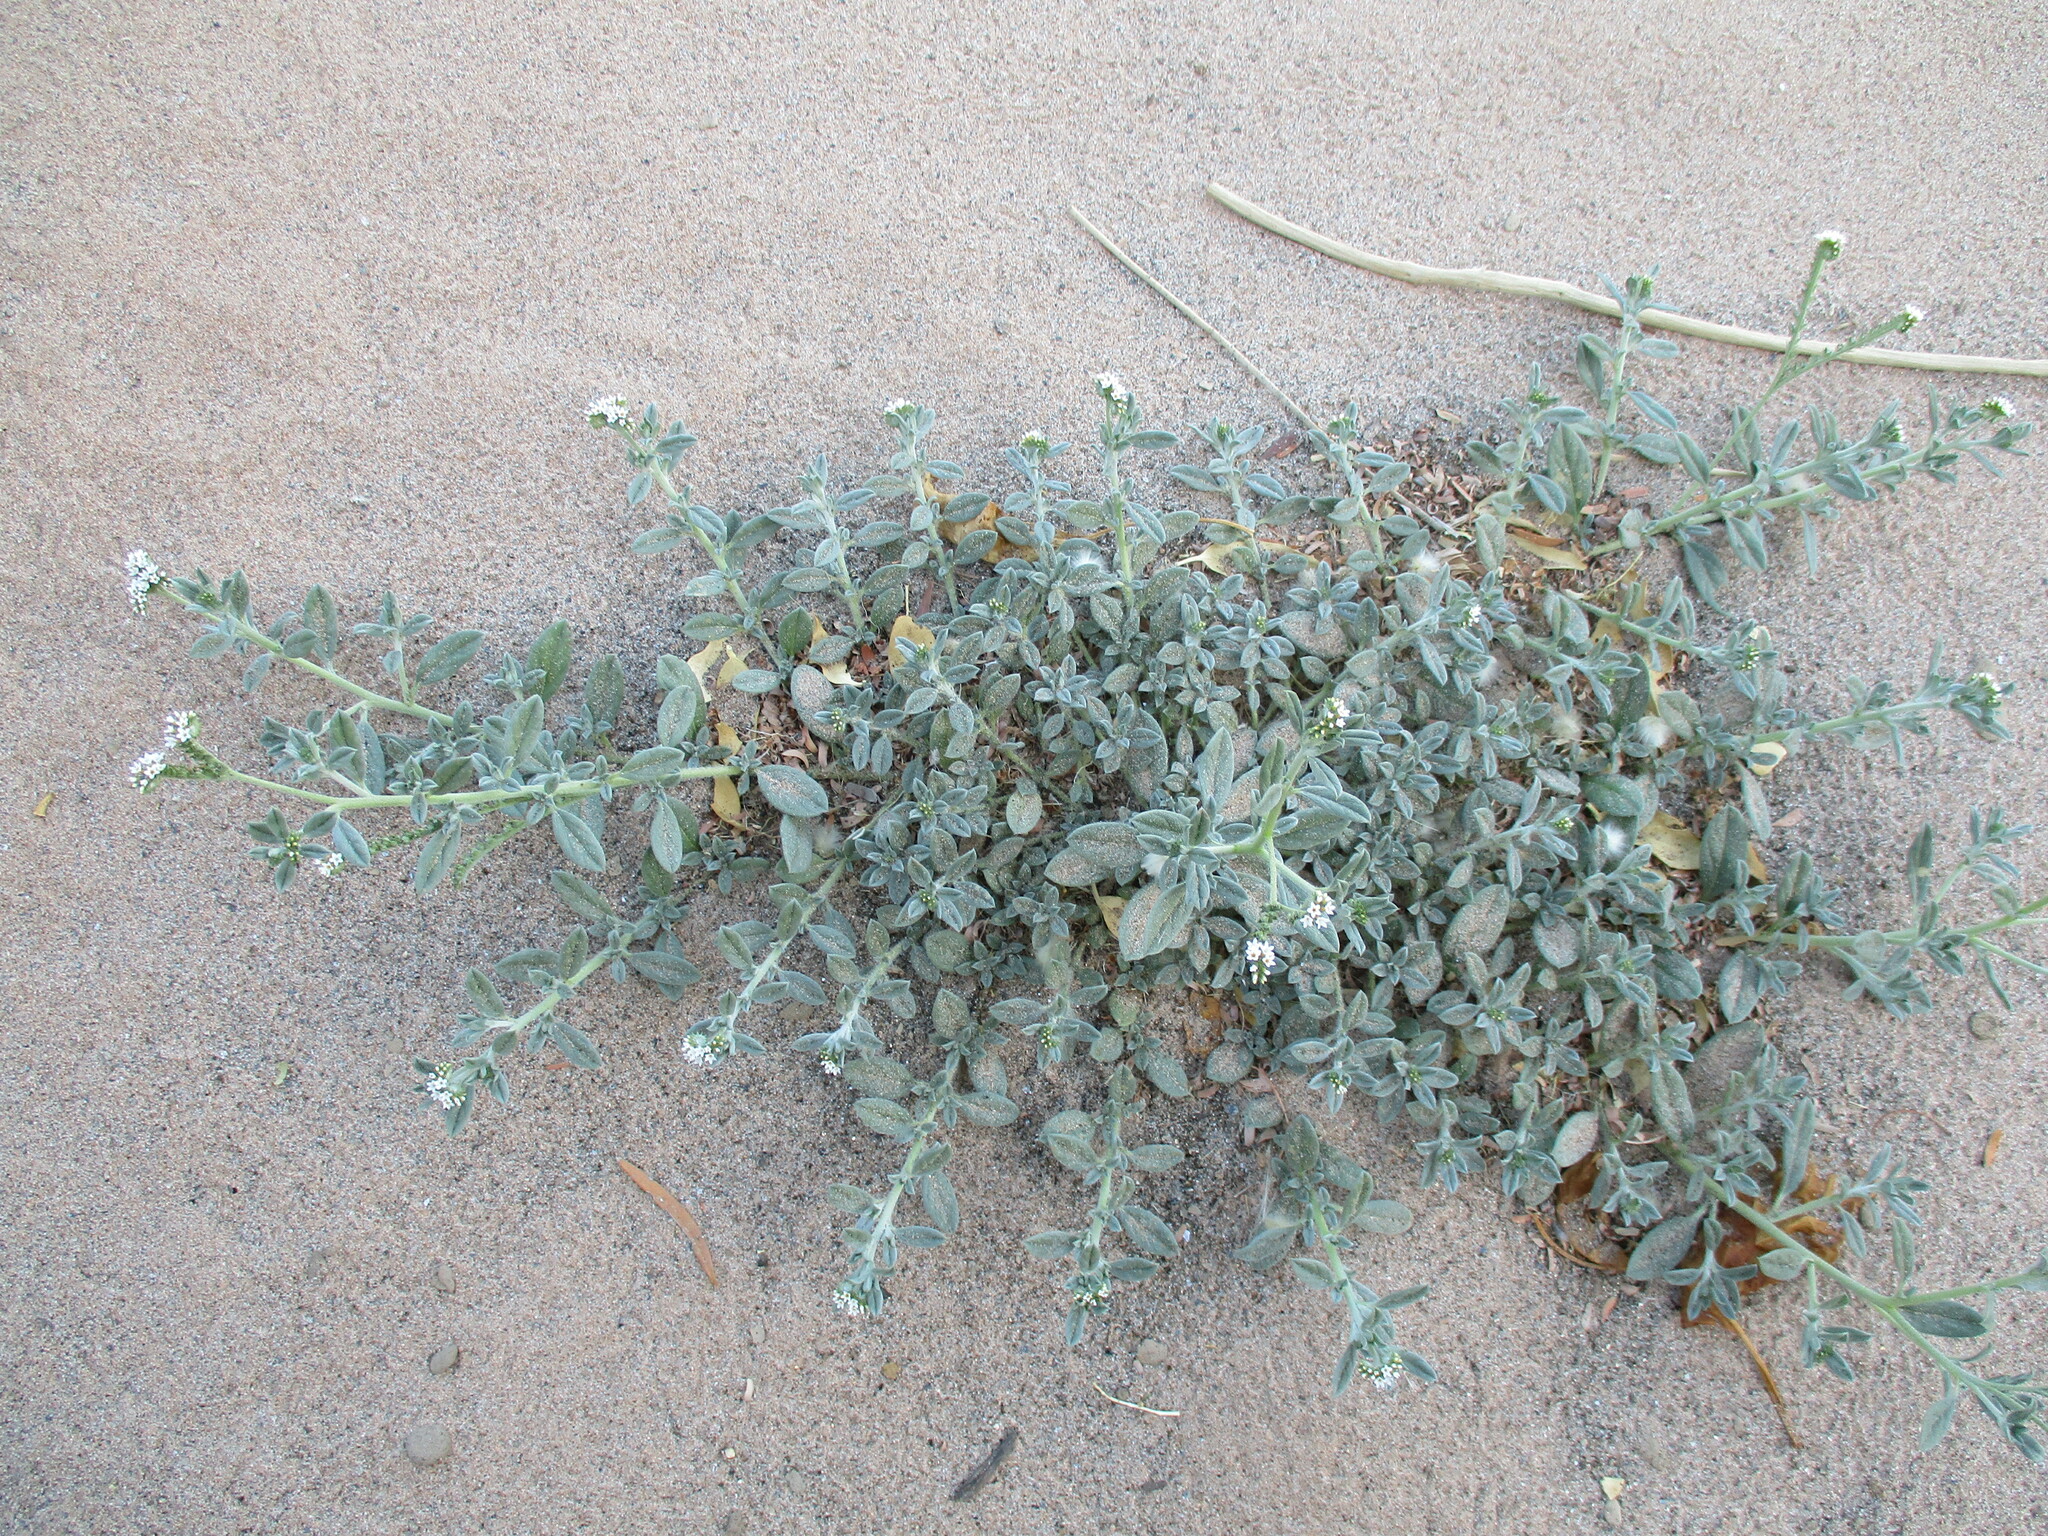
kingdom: Plantae
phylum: Tracheophyta
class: Magnoliopsida
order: Boraginales
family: Heliotropiaceae
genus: Euploca
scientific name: Euploca ovalifolia
